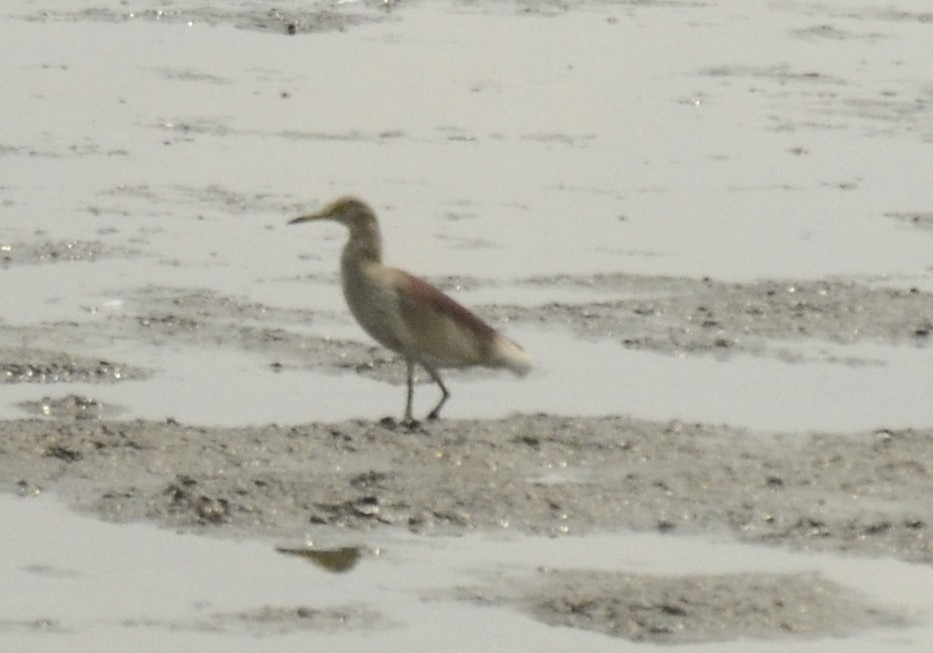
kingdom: Animalia
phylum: Chordata
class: Aves
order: Pelecaniformes
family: Ardeidae
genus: Ardeola
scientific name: Ardeola grayii
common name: Indian pond heron
